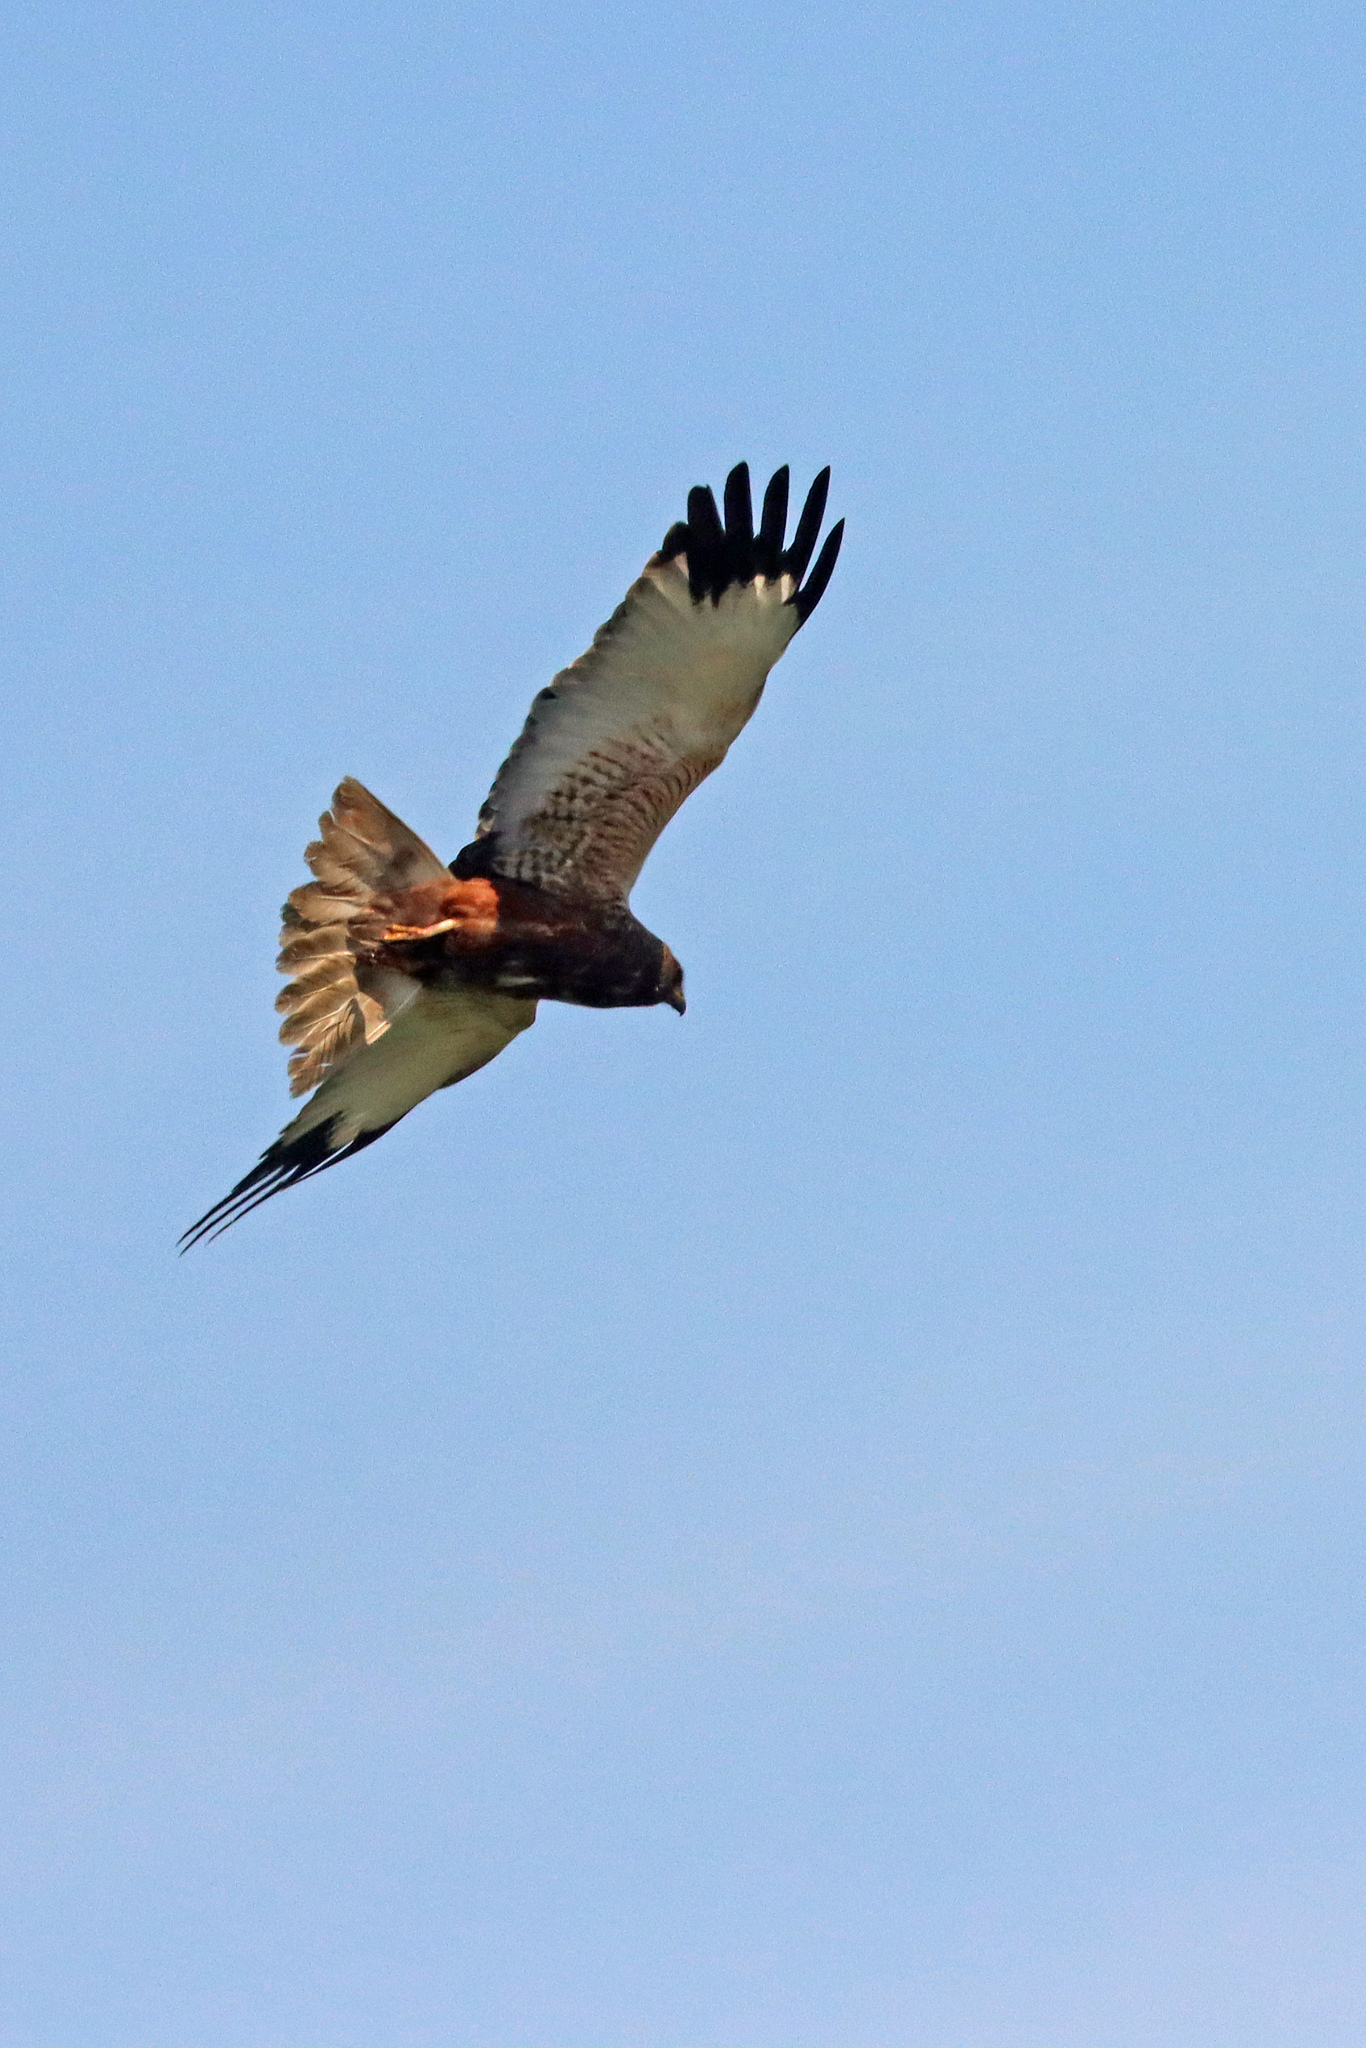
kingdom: Animalia
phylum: Chordata
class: Aves
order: Accipitriformes
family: Accipitridae
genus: Circus
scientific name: Circus aeruginosus
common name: Western marsh harrier
